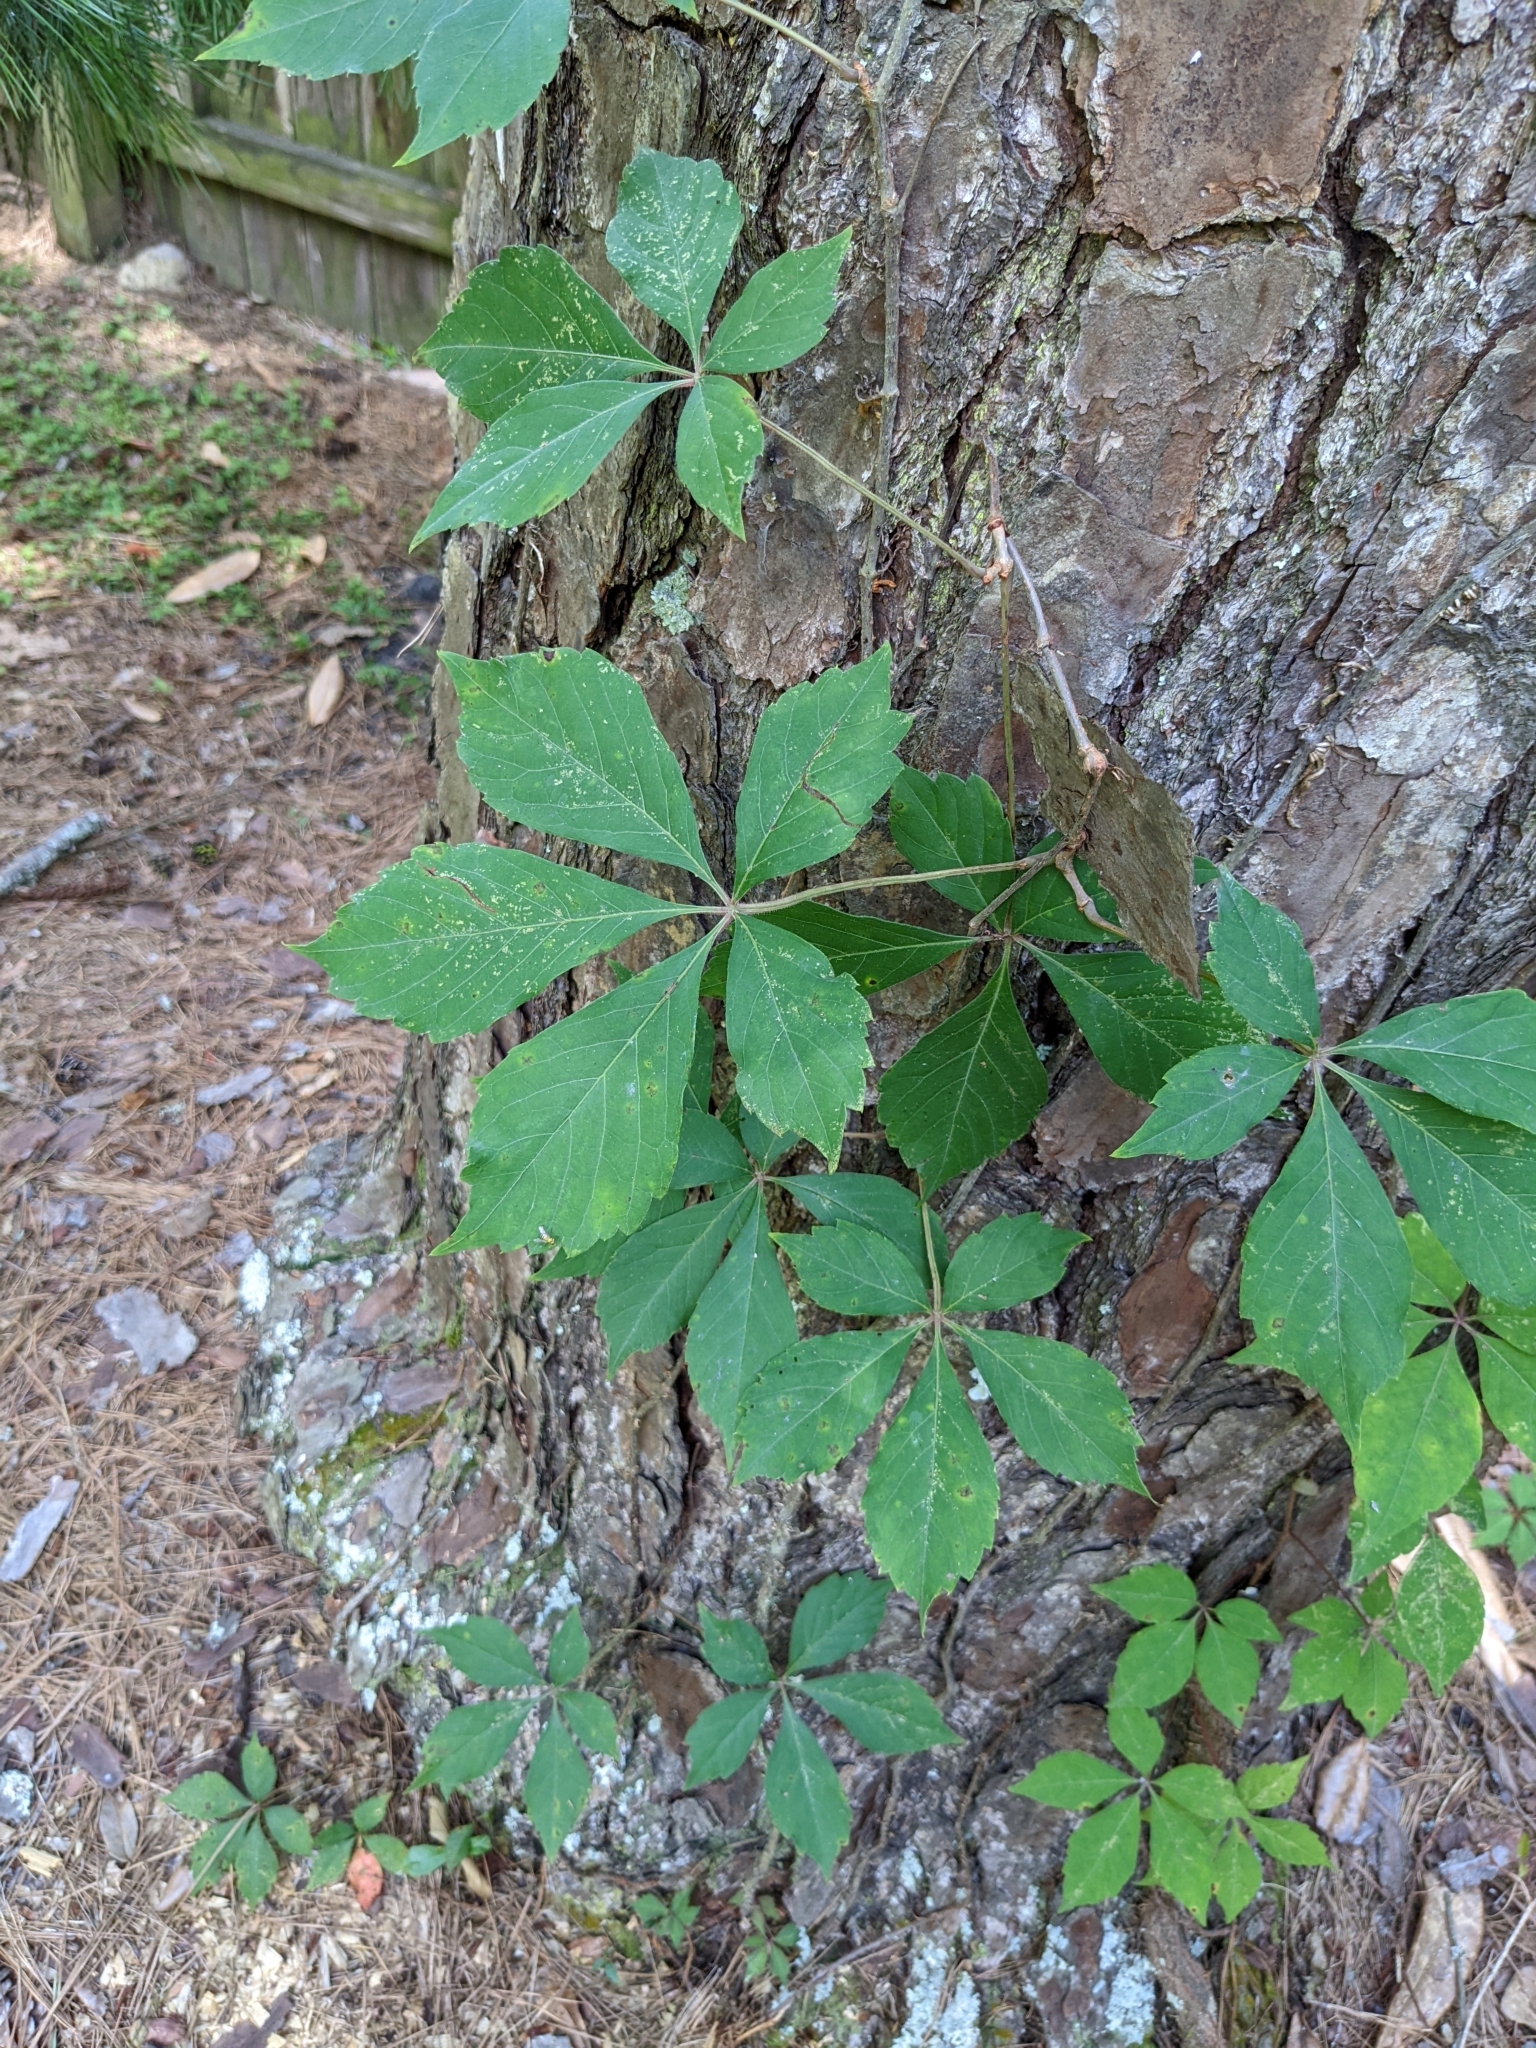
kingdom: Plantae
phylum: Tracheophyta
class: Magnoliopsida
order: Vitales
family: Vitaceae
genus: Parthenocissus
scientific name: Parthenocissus quinquefolia
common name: Virginia-creeper
